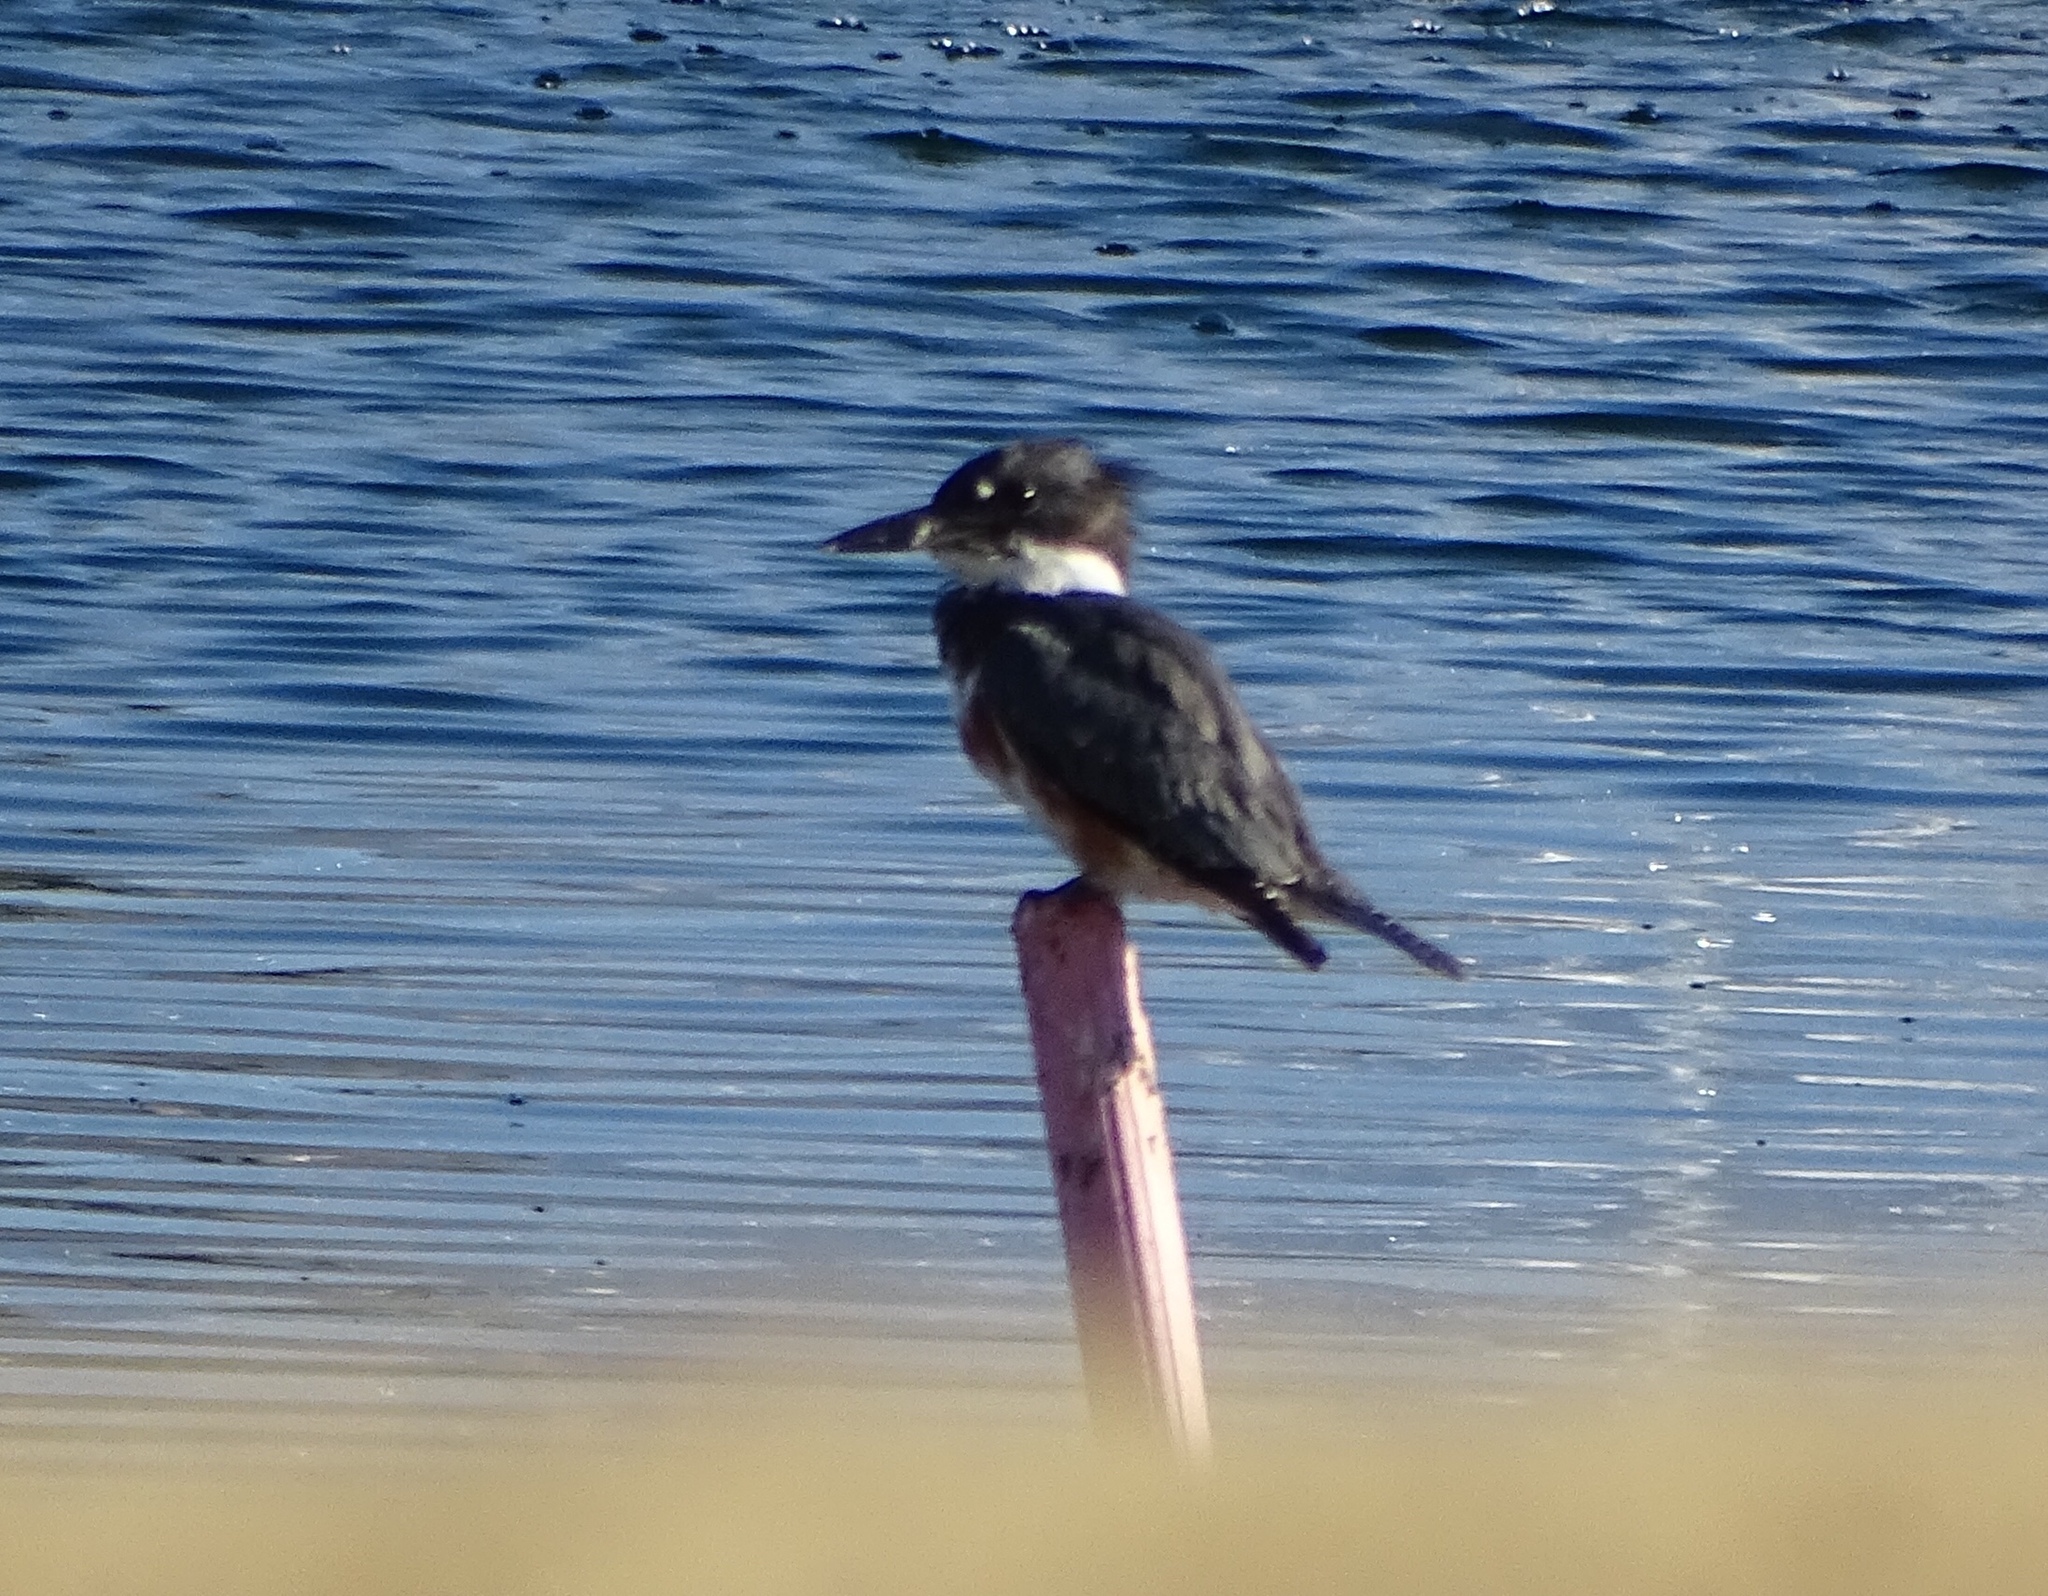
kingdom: Animalia
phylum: Chordata
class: Aves
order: Coraciiformes
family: Alcedinidae
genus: Megaceryle
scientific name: Megaceryle alcyon
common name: Belted kingfisher
